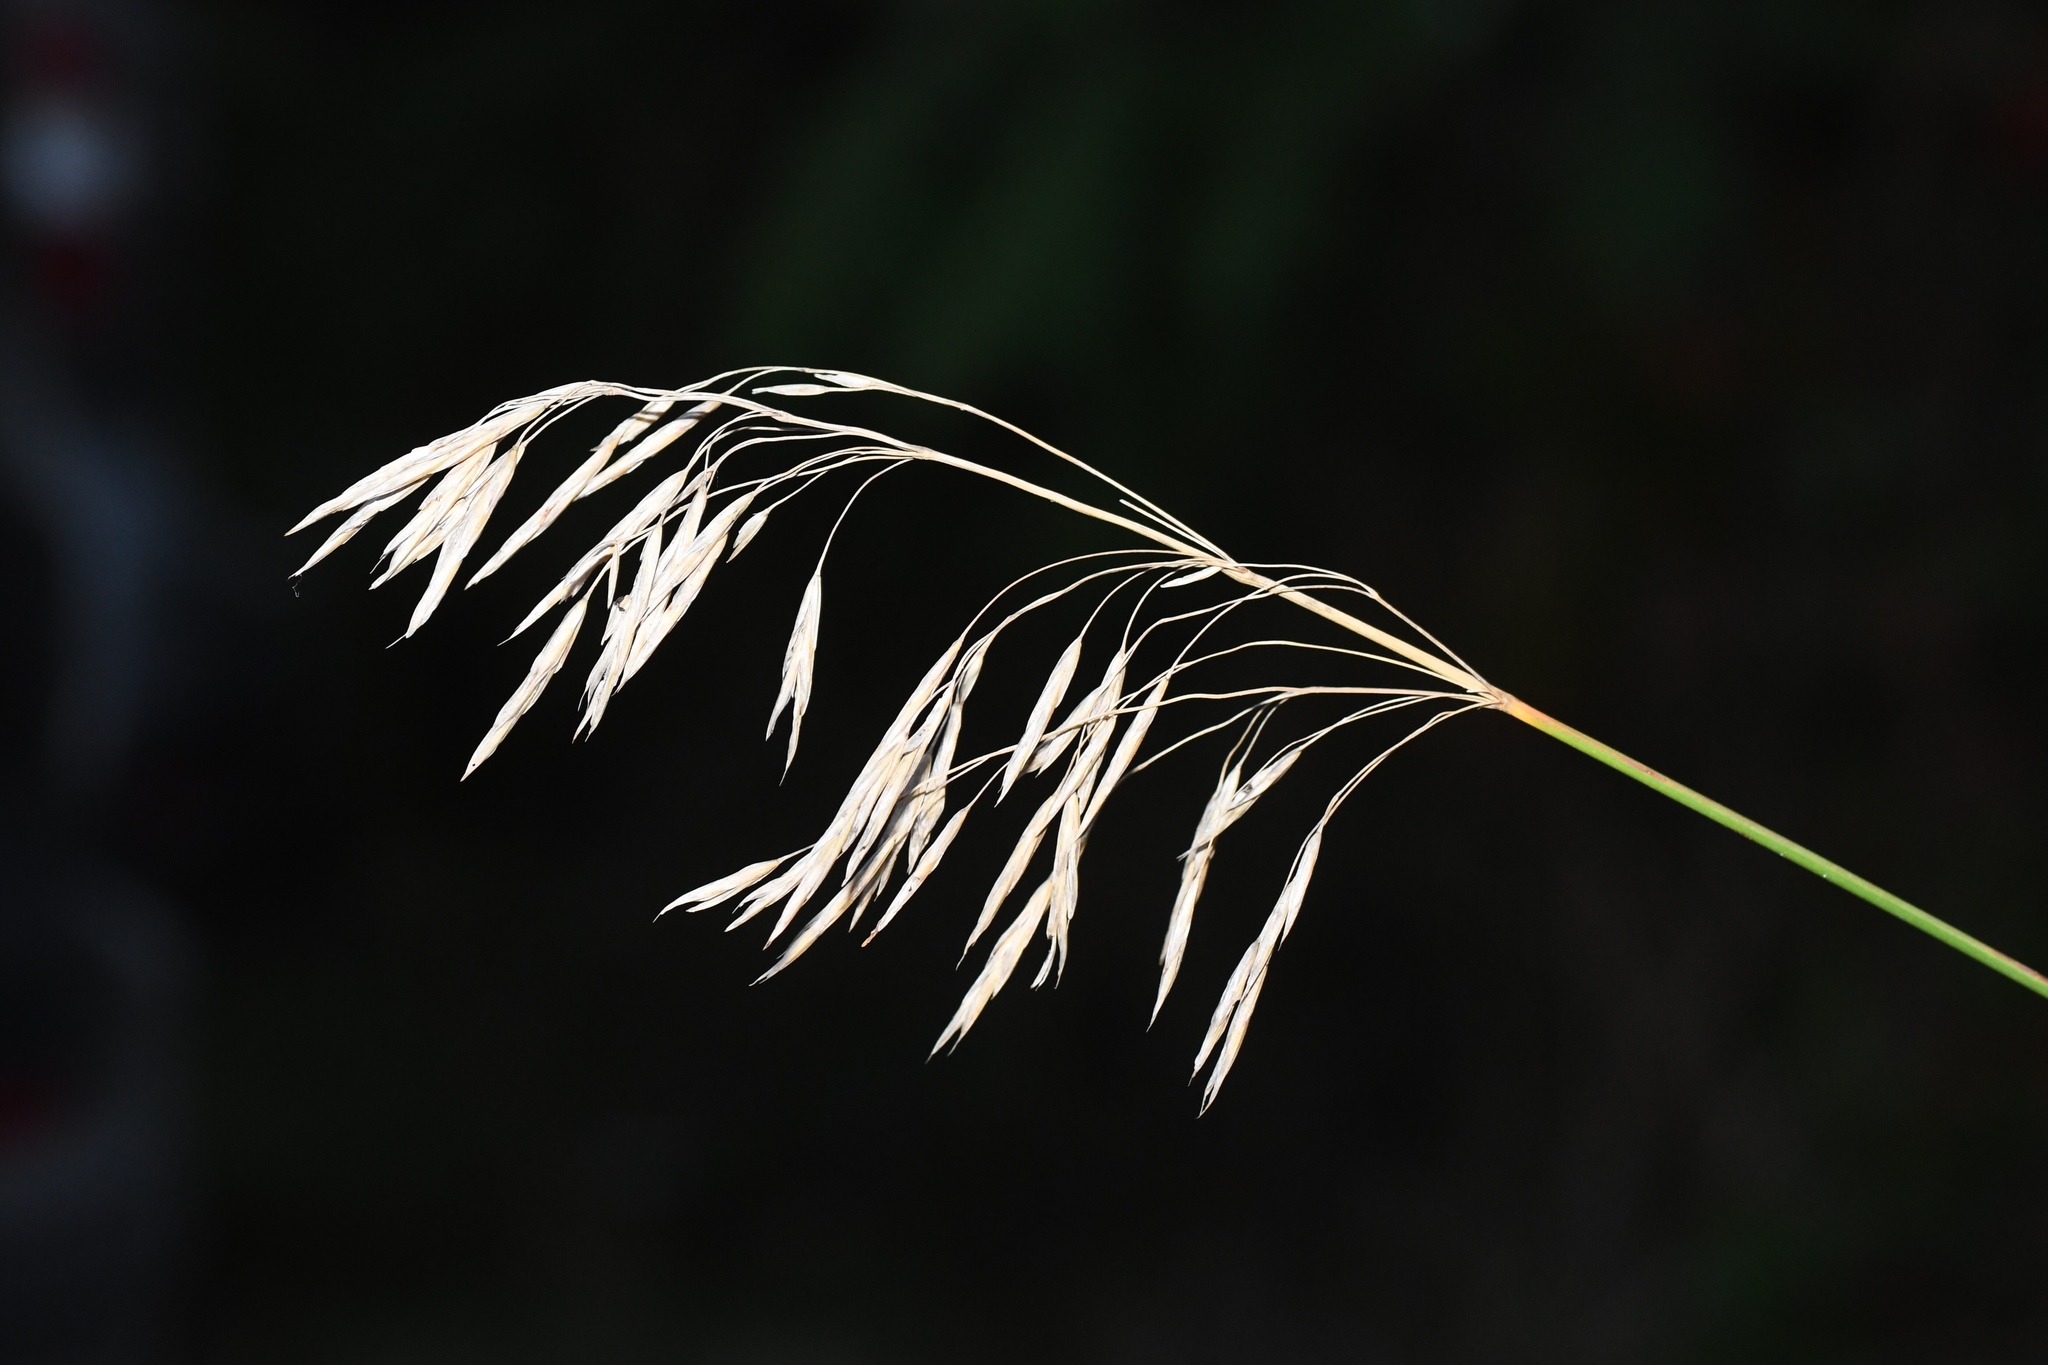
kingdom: Plantae
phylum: Tracheophyta
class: Liliopsida
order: Poales
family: Poaceae
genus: Bromus
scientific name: Bromus inermis
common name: Smooth brome
